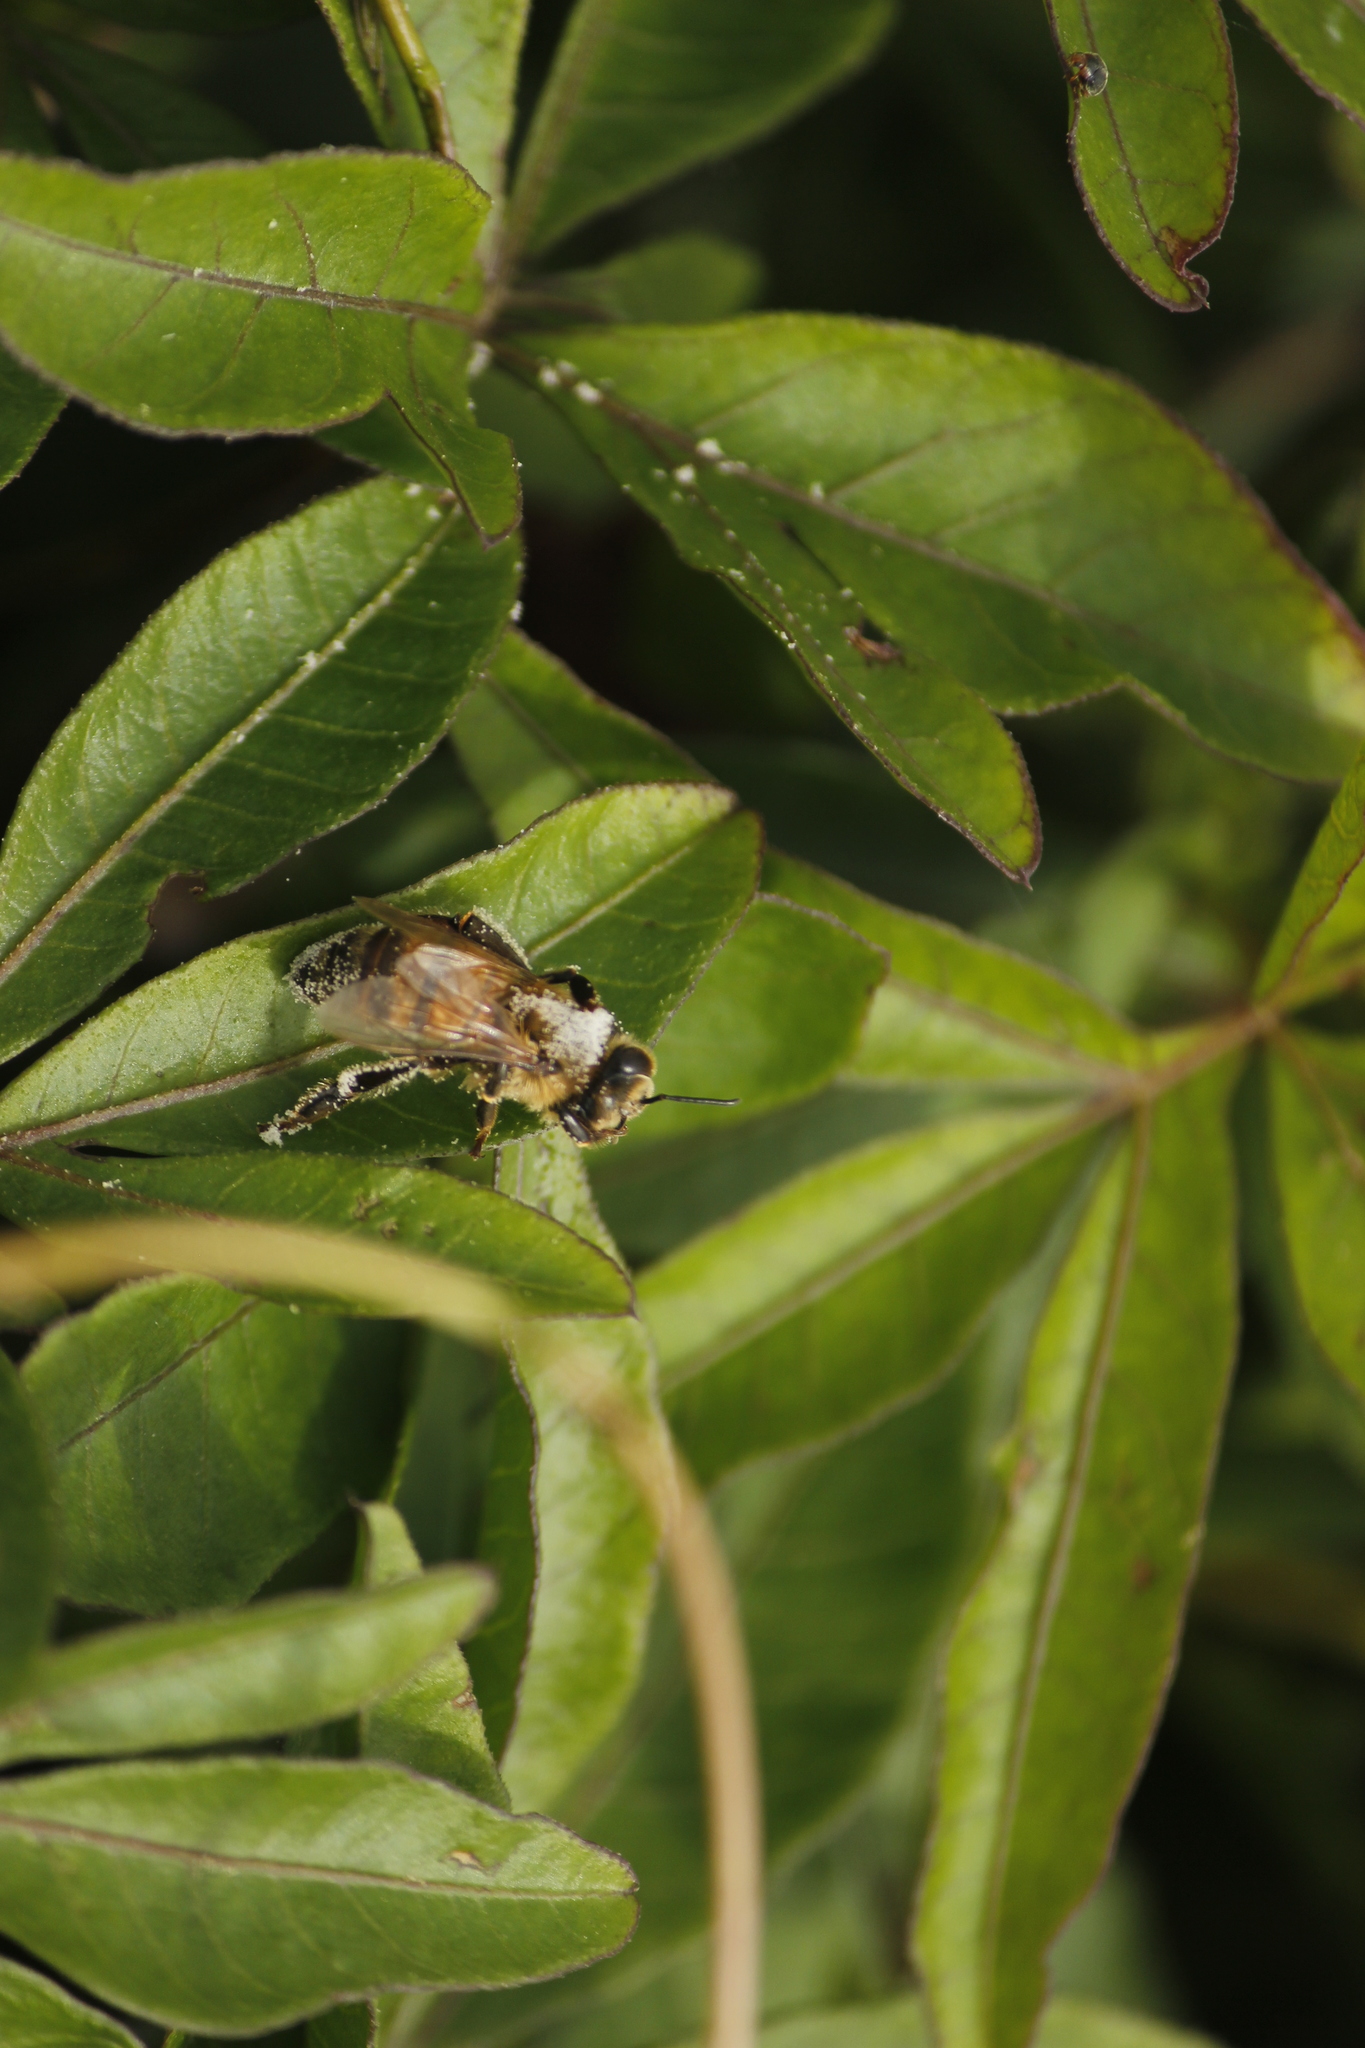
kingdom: Animalia
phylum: Arthropoda
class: Insecta
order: Hymenoptera
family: Apidae
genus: Apis
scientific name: Apis mellifera
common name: Honey bee
